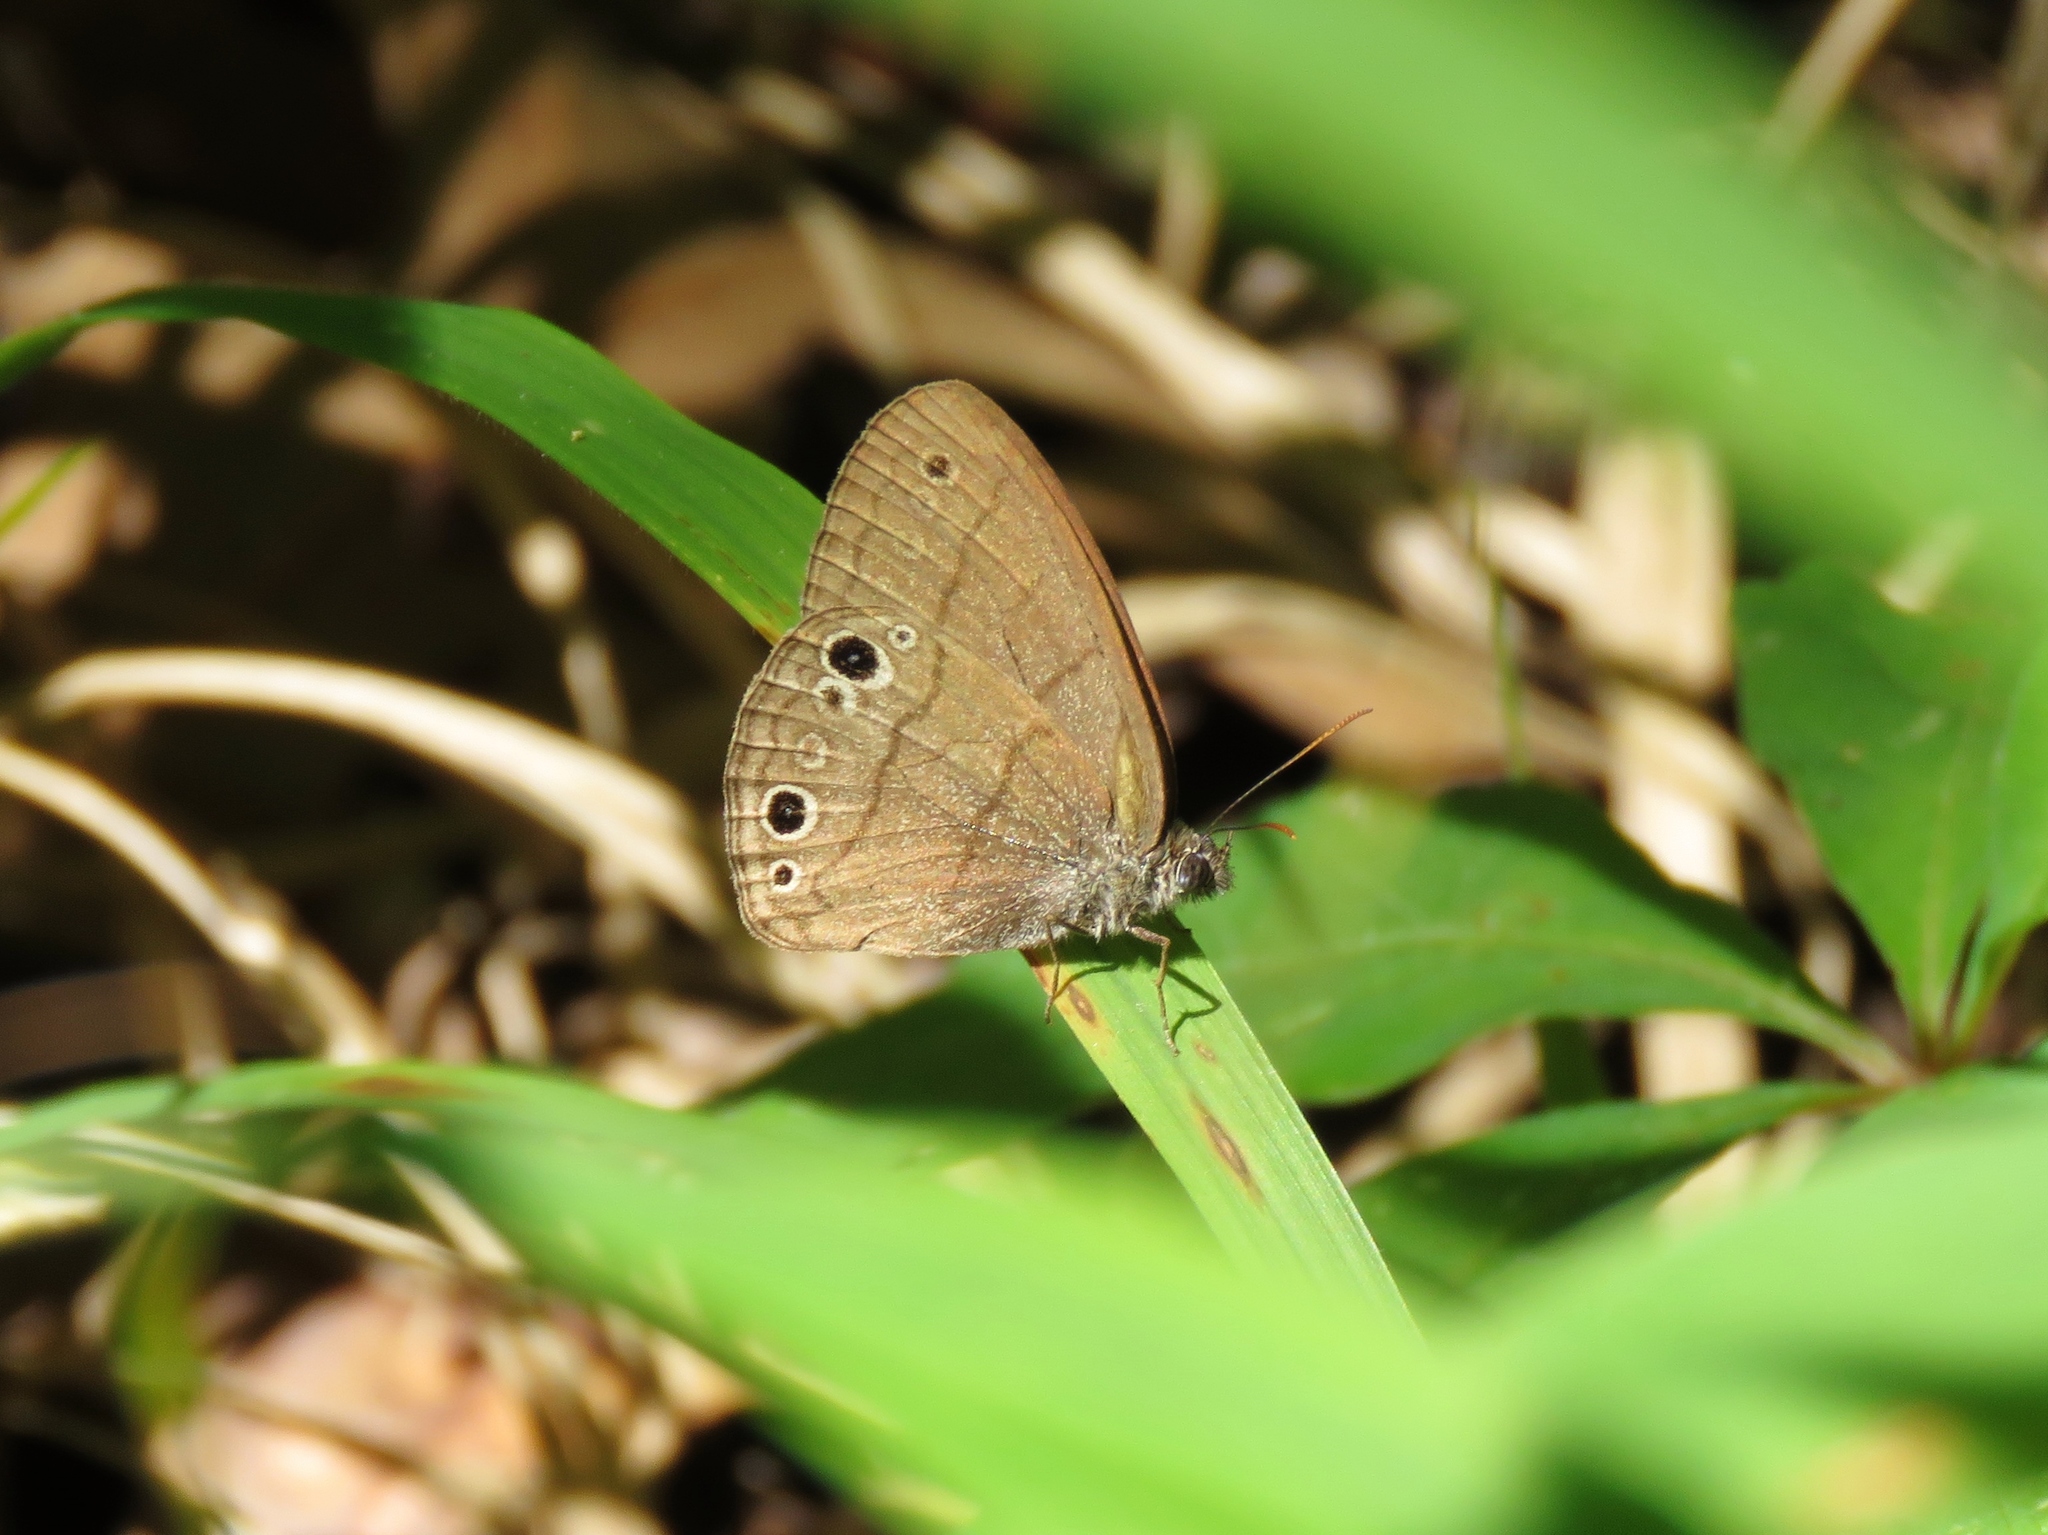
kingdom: Animalia
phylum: Arthropoda
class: Insecta
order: Lepidoptera
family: Nymphalidae
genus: Hermeuptychia
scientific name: Hermeuptychia hermes
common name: Hermes satyr
